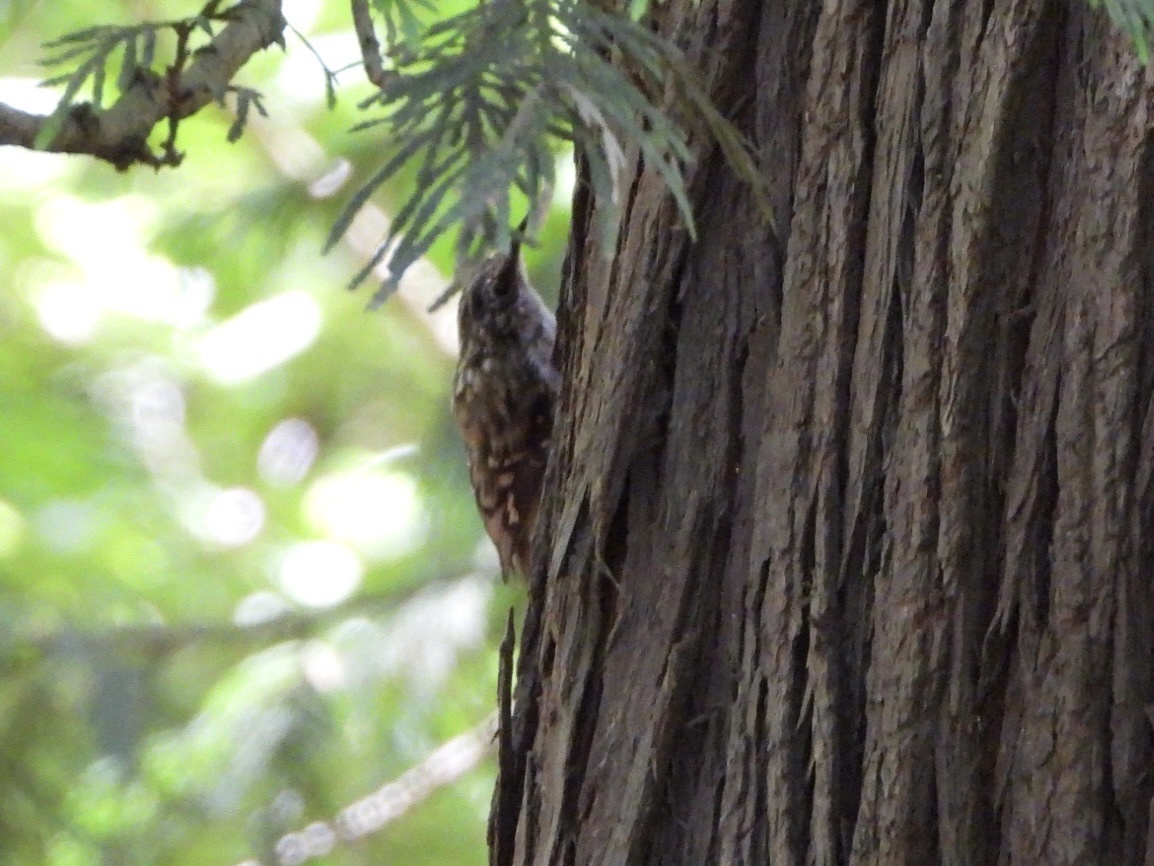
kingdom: Animalia
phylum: Chordata
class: Aves
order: Passeriformes
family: Certhiidae
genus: Certhia
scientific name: Certhia americana
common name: Brown creeper
